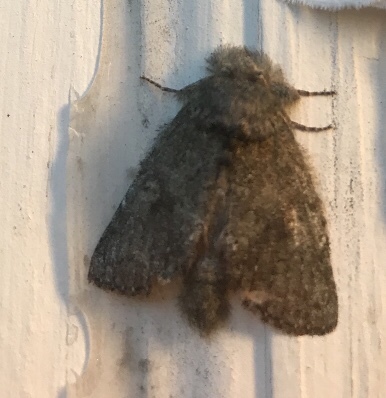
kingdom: Animalia
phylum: Arthropoda
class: Insecta
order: Lepidoptera
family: Notodontidae
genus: Disphragis
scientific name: Disphragis Cecrita guttivitta
